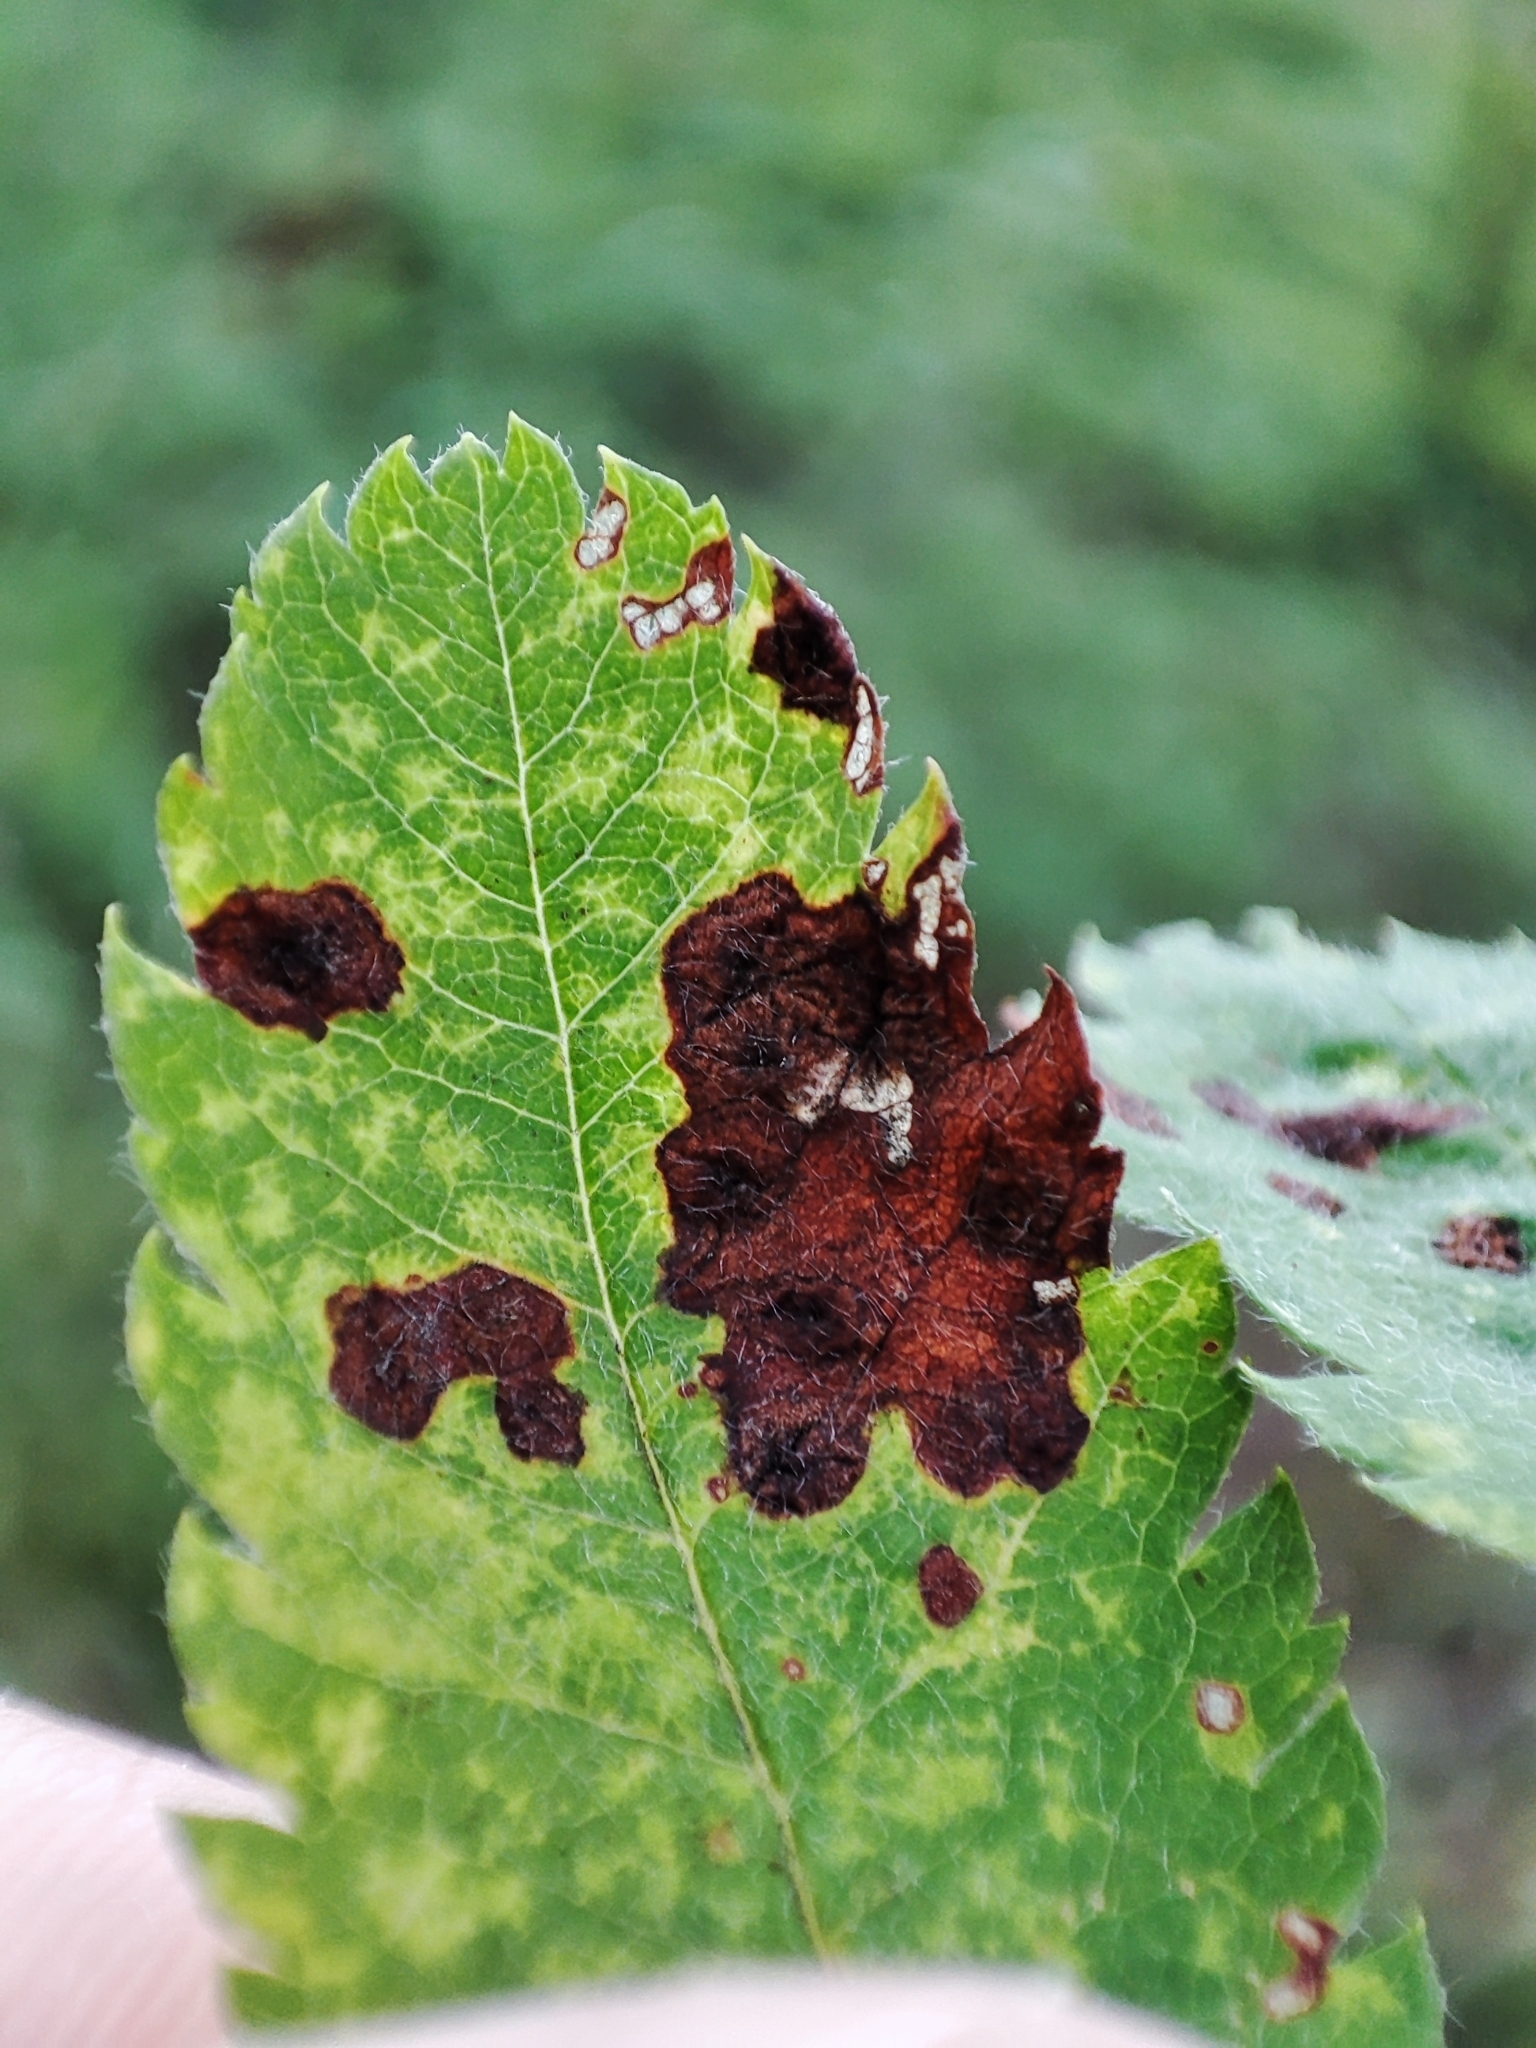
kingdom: Plantae
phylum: Tracheophyta
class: Magnoliopsida
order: Rosales
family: Rosaceae
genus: Sorbus
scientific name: Sorbus aucuparia
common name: Rowan
